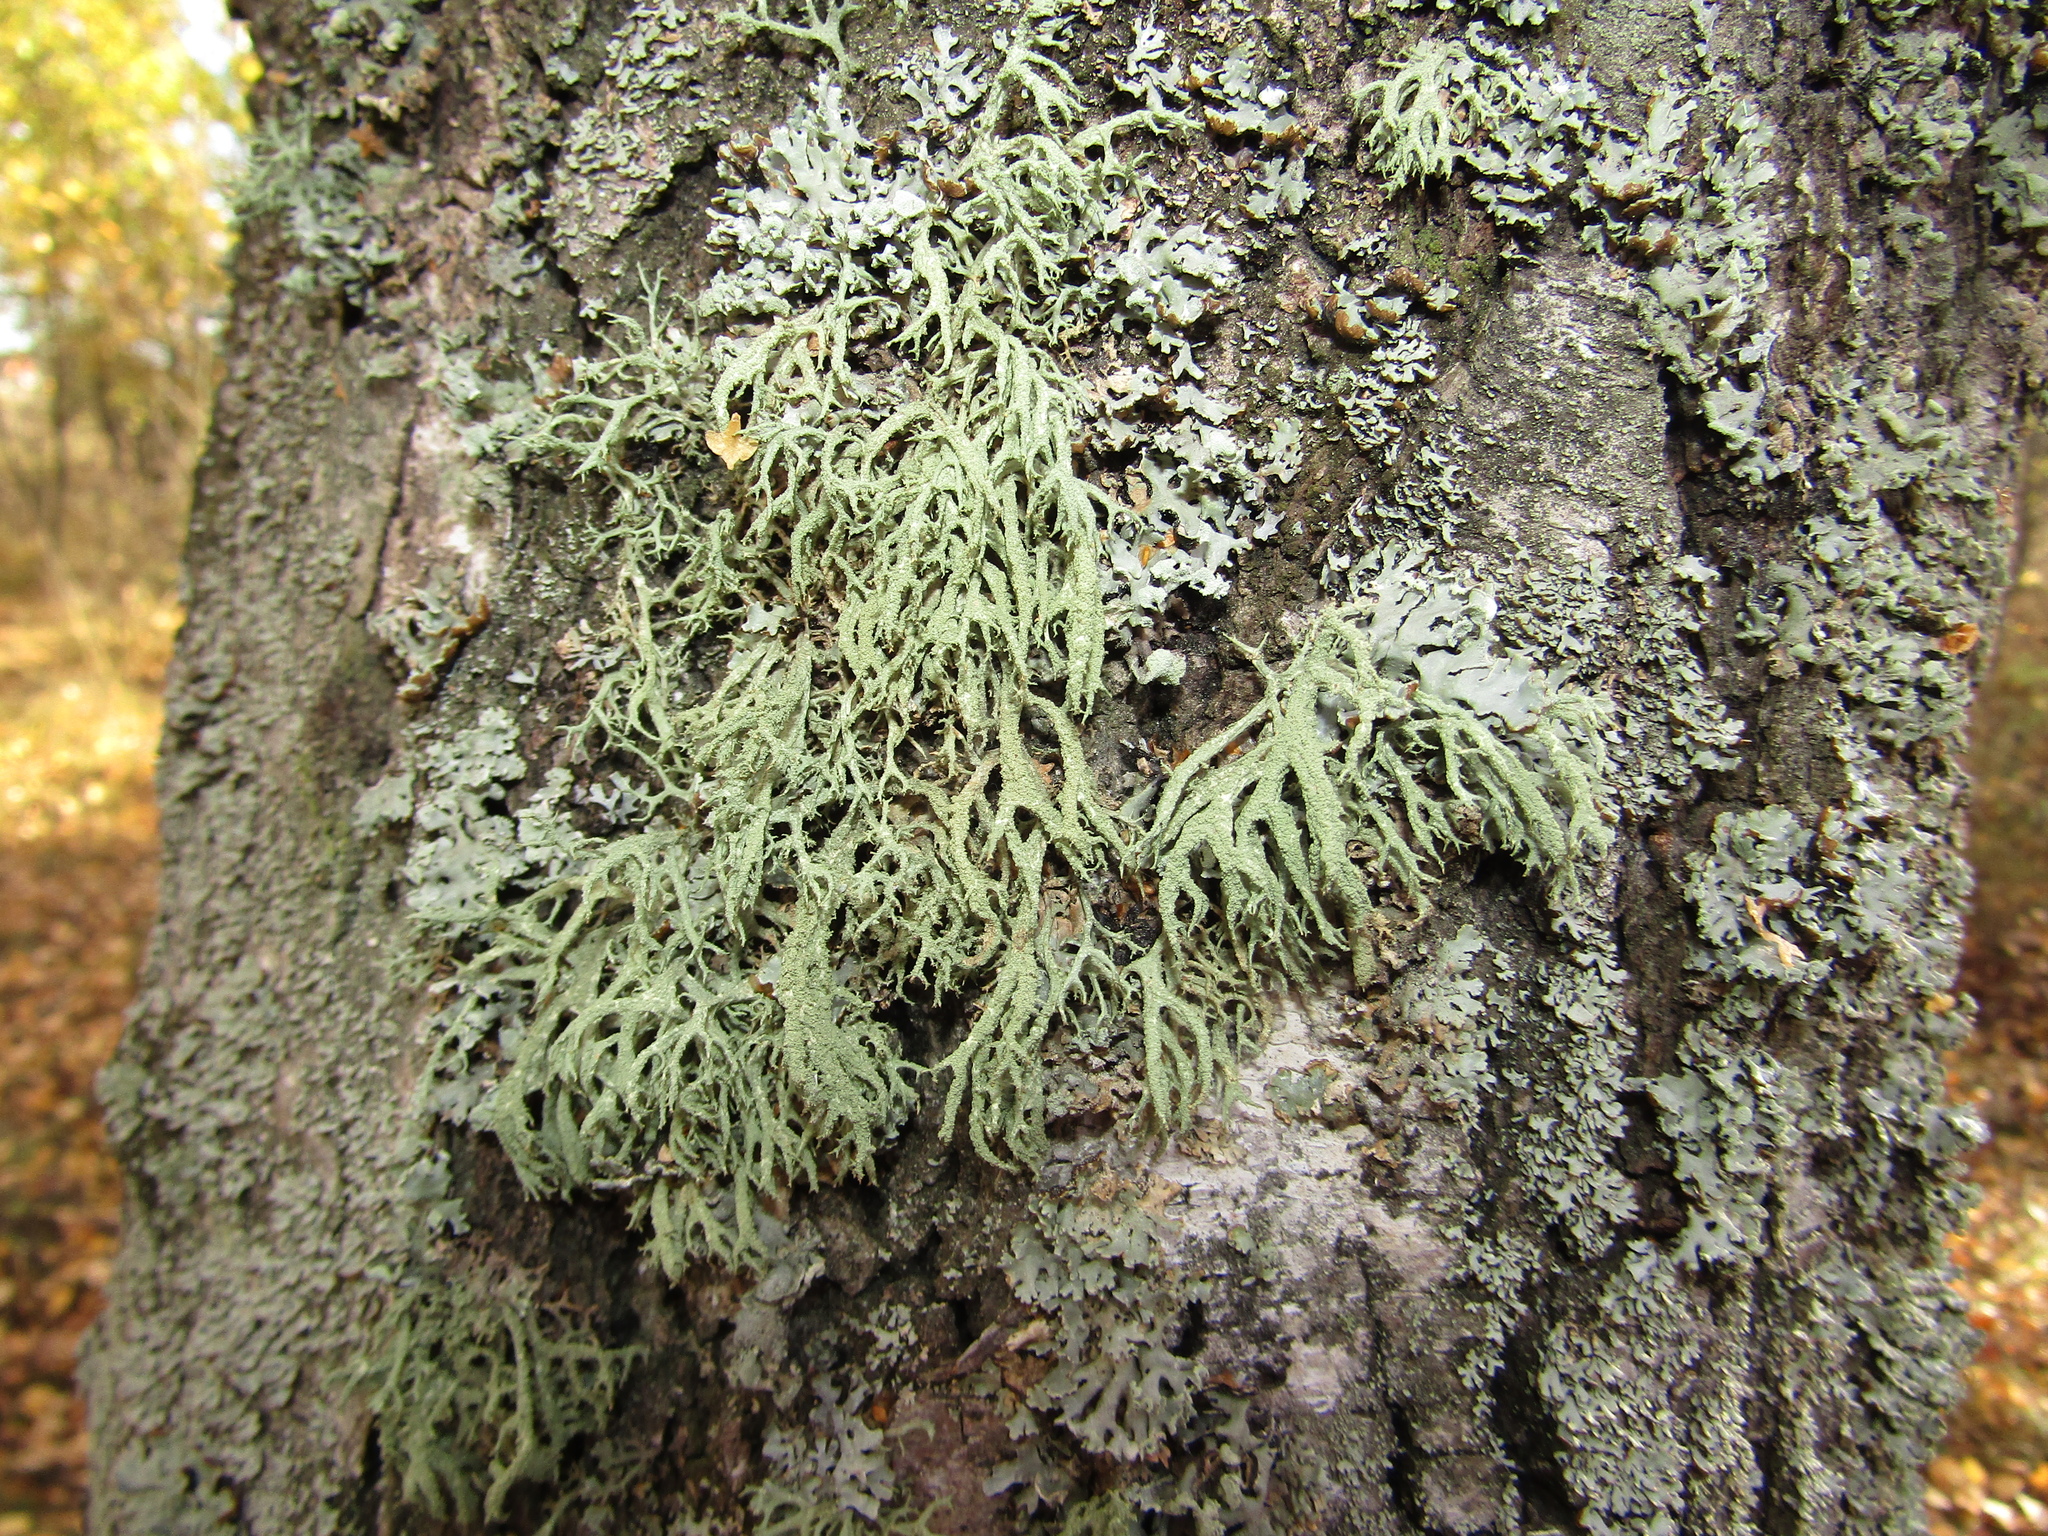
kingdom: Fungi
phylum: Ascomycota
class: Lecanoromycetes
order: Lecanorales
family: Parmeliaceae
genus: Evernia
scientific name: Evernia mesomorpha
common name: Boreal oak moss lichen
